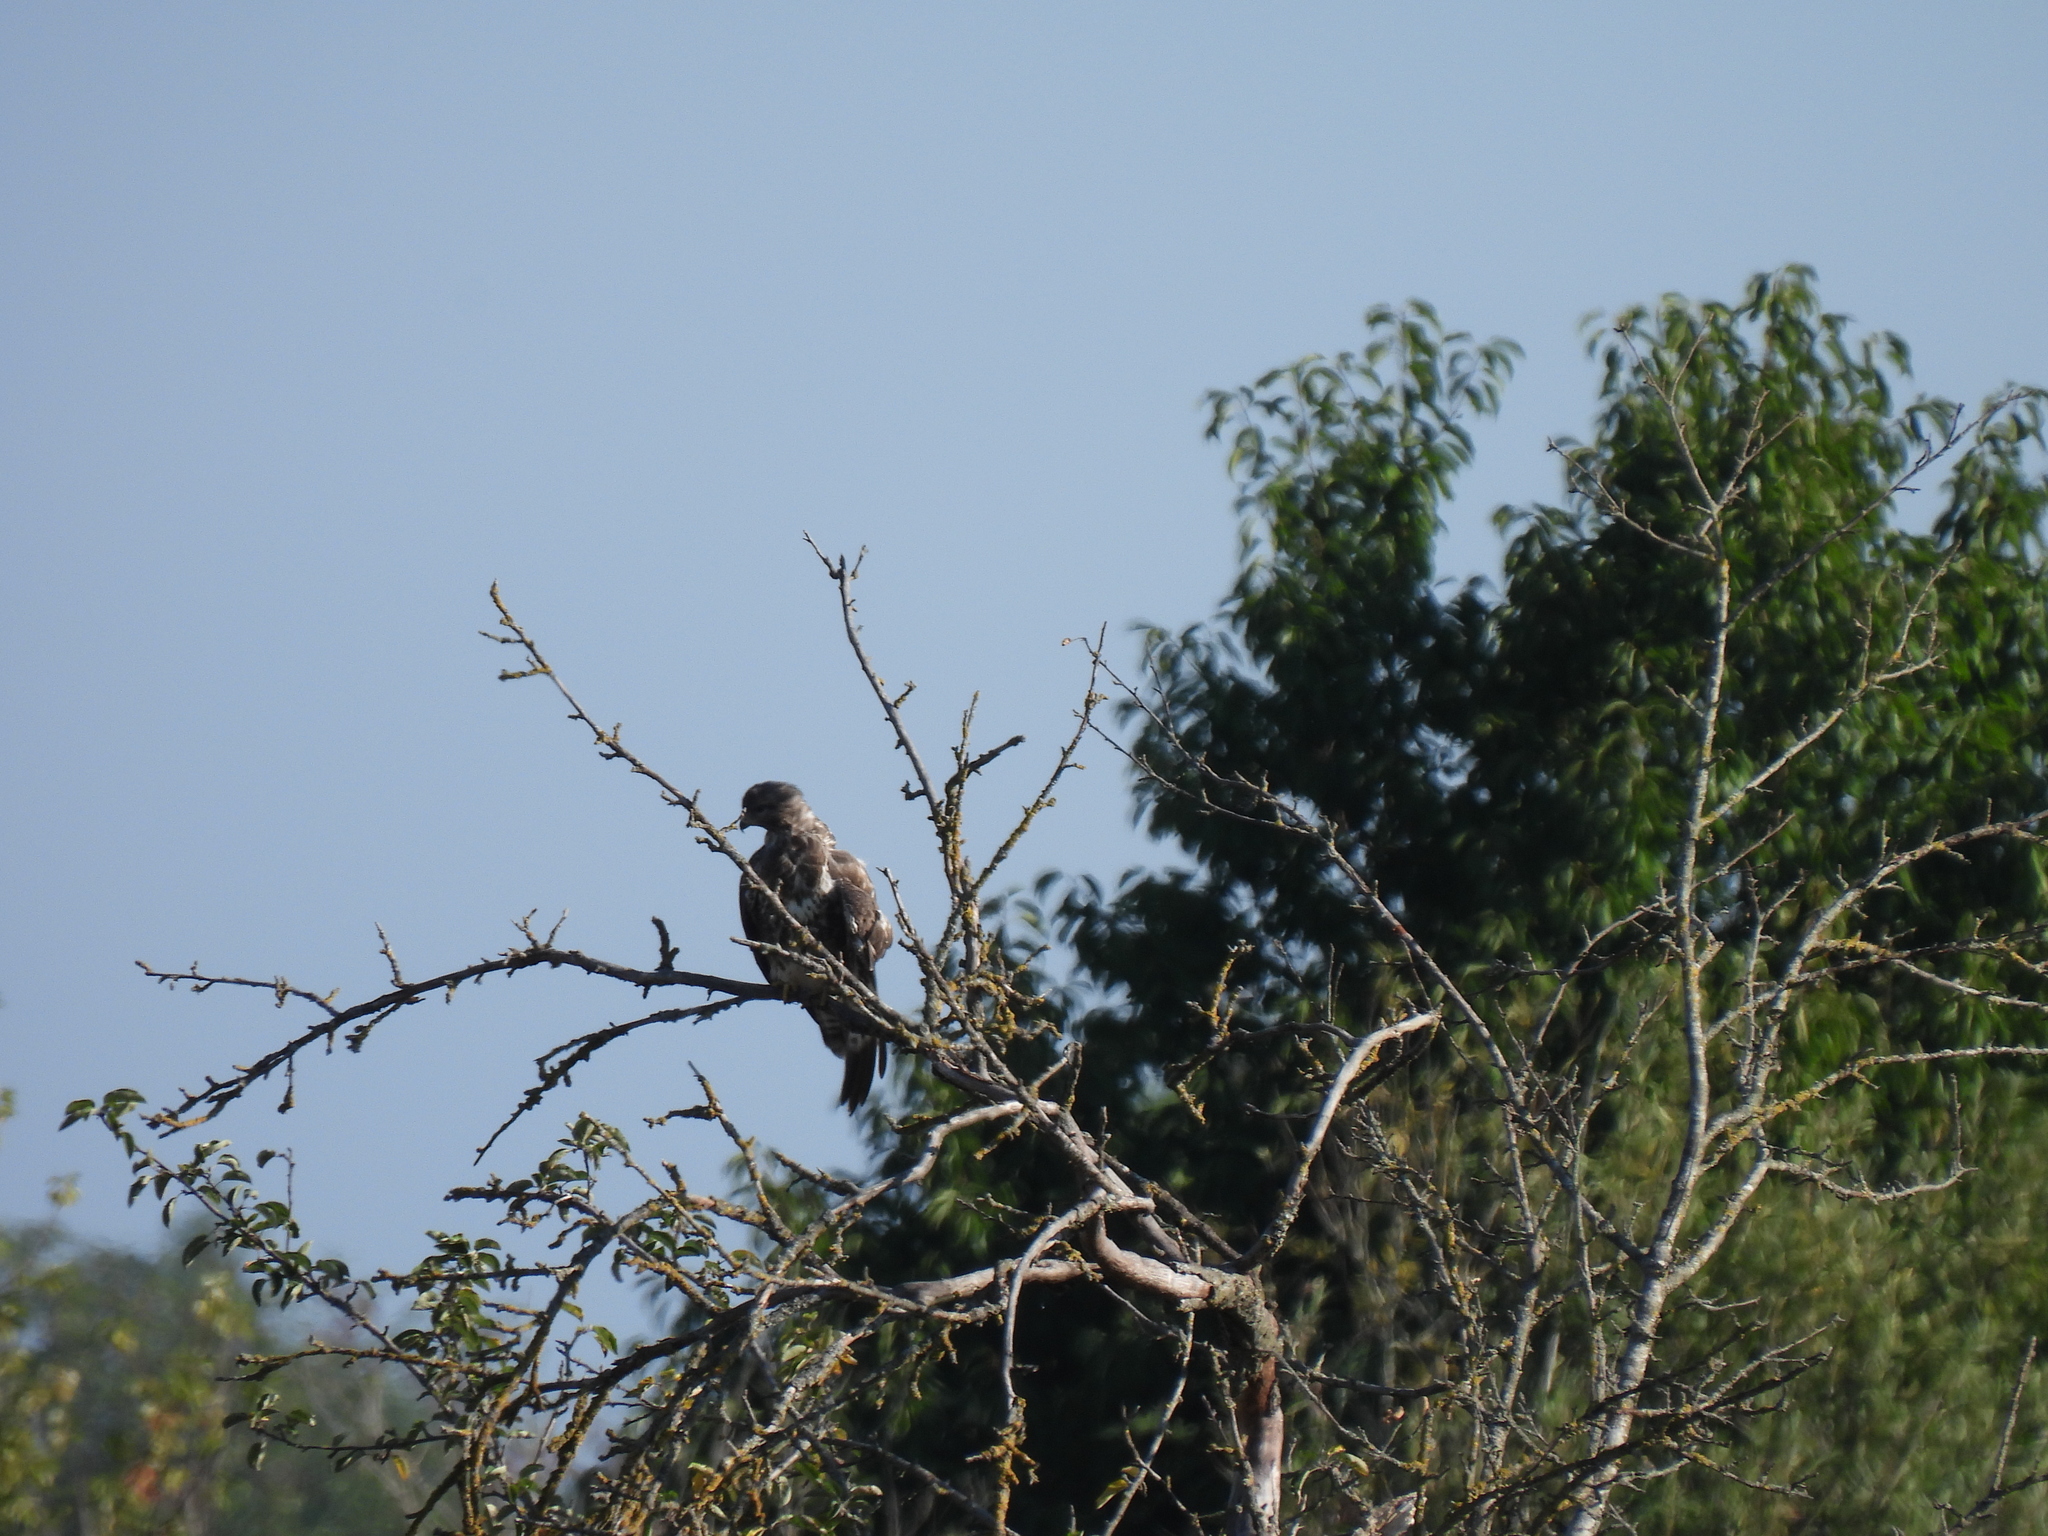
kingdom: Animalia
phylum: Chordata
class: Aves
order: Accipitriformes
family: Accipitridae
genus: Buteo
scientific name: Buteo buteo
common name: Common buzzard
